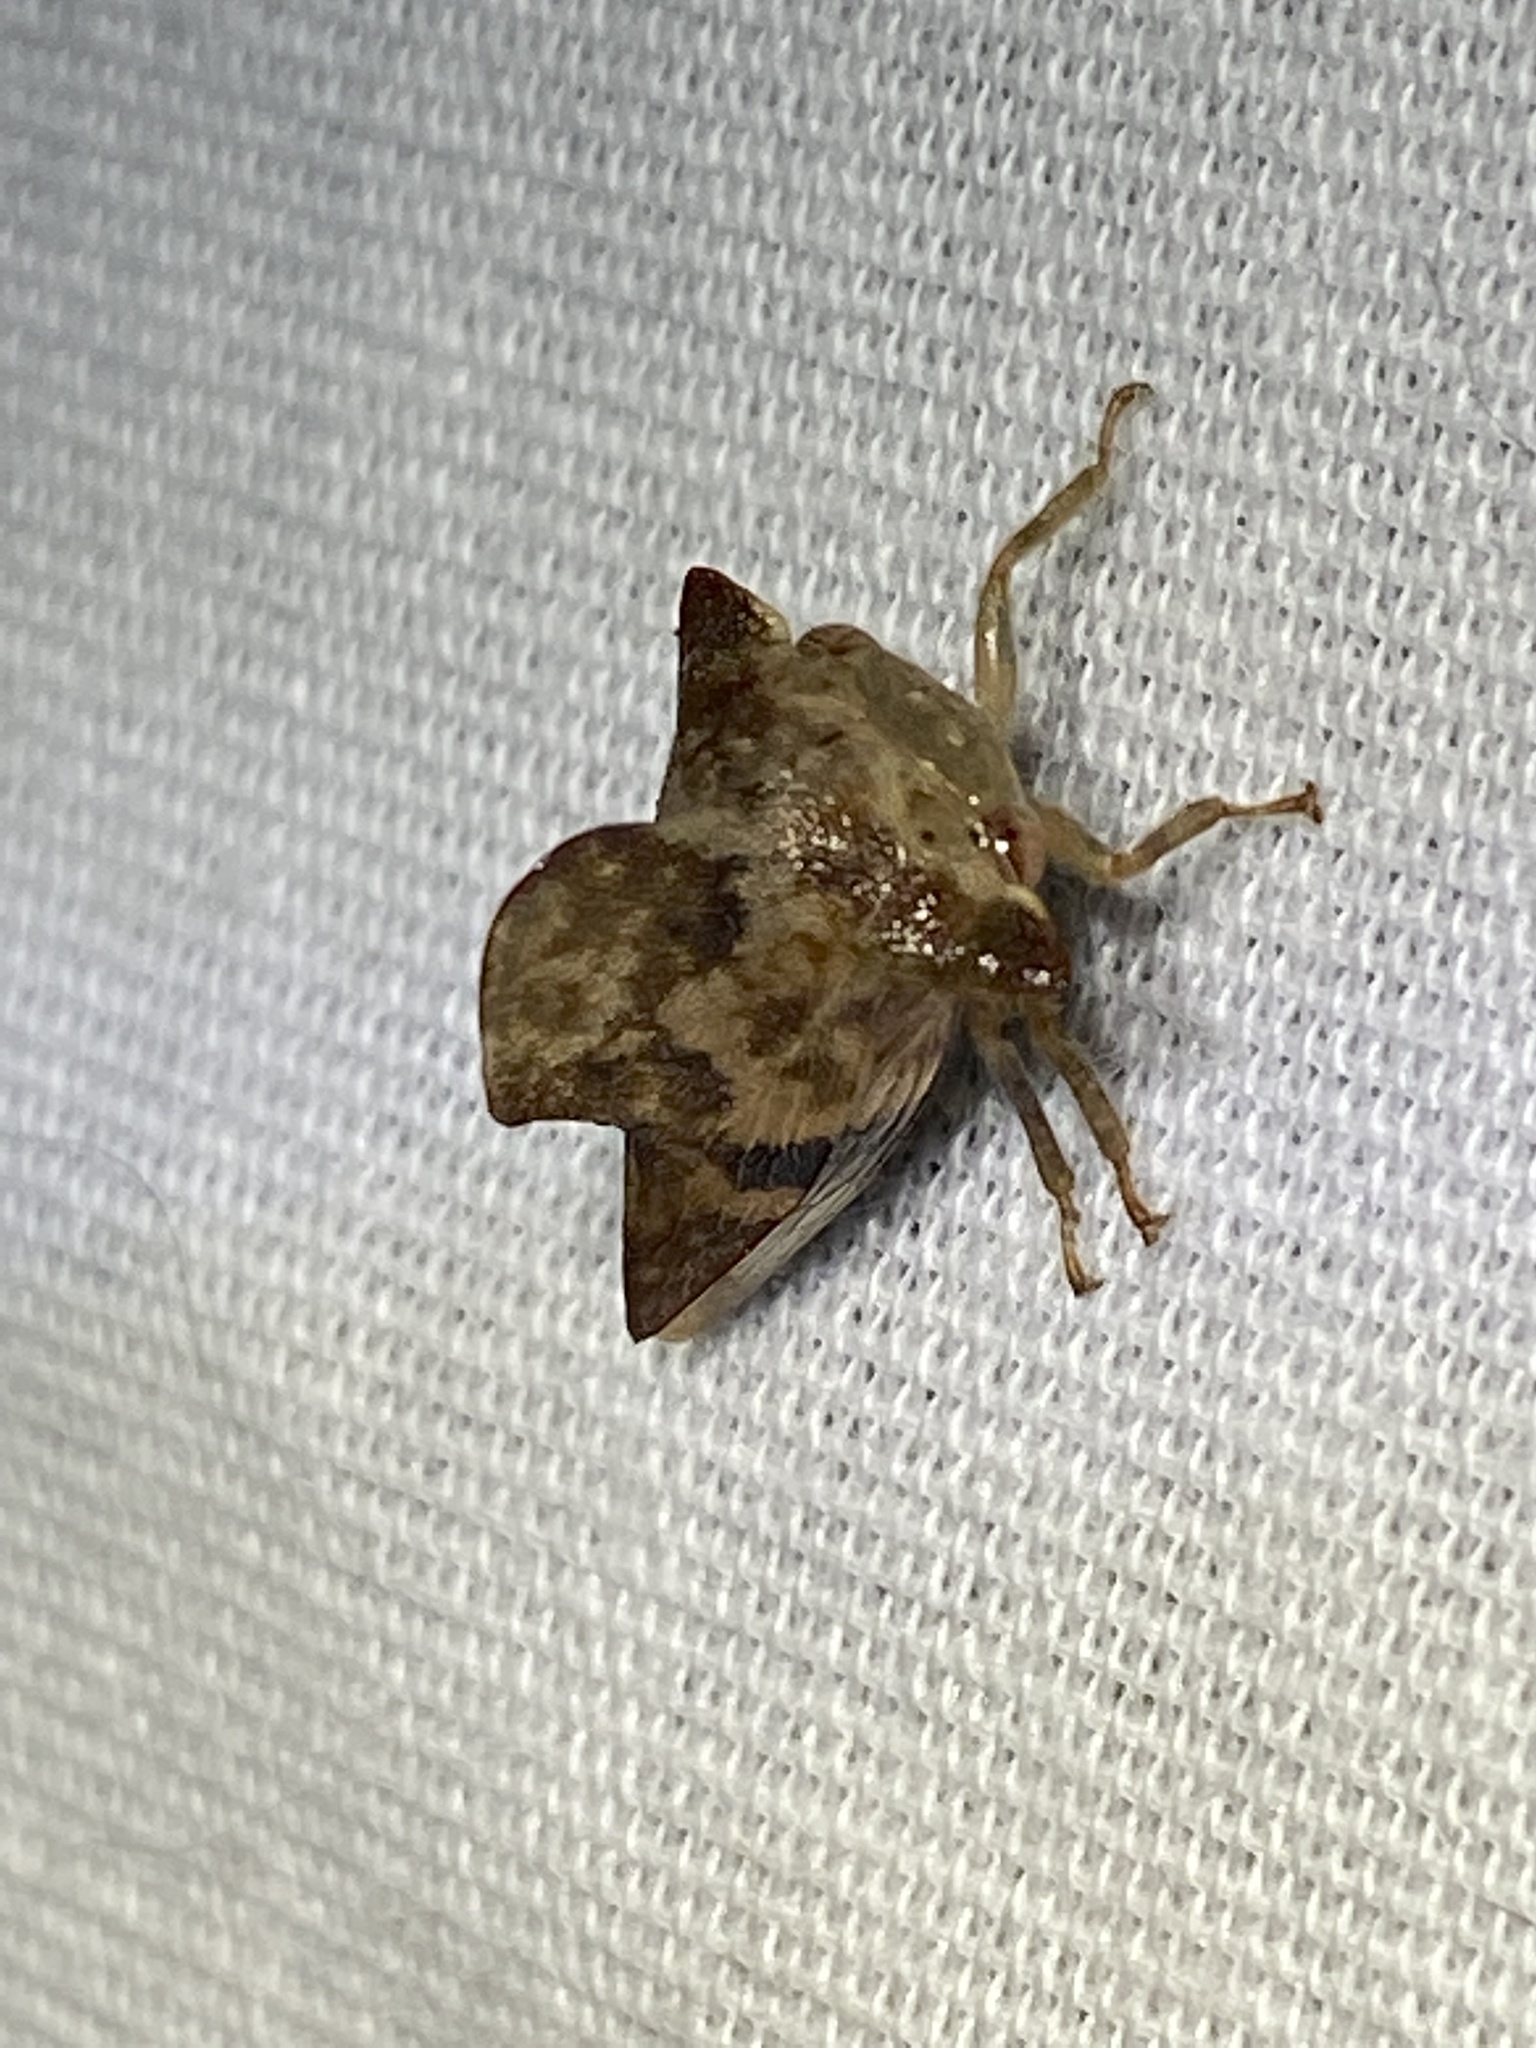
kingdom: Animalia
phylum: Arthropoda
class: Insecta
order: Hemiptera
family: Membracidae
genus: Telamona
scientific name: Telamona maculata
